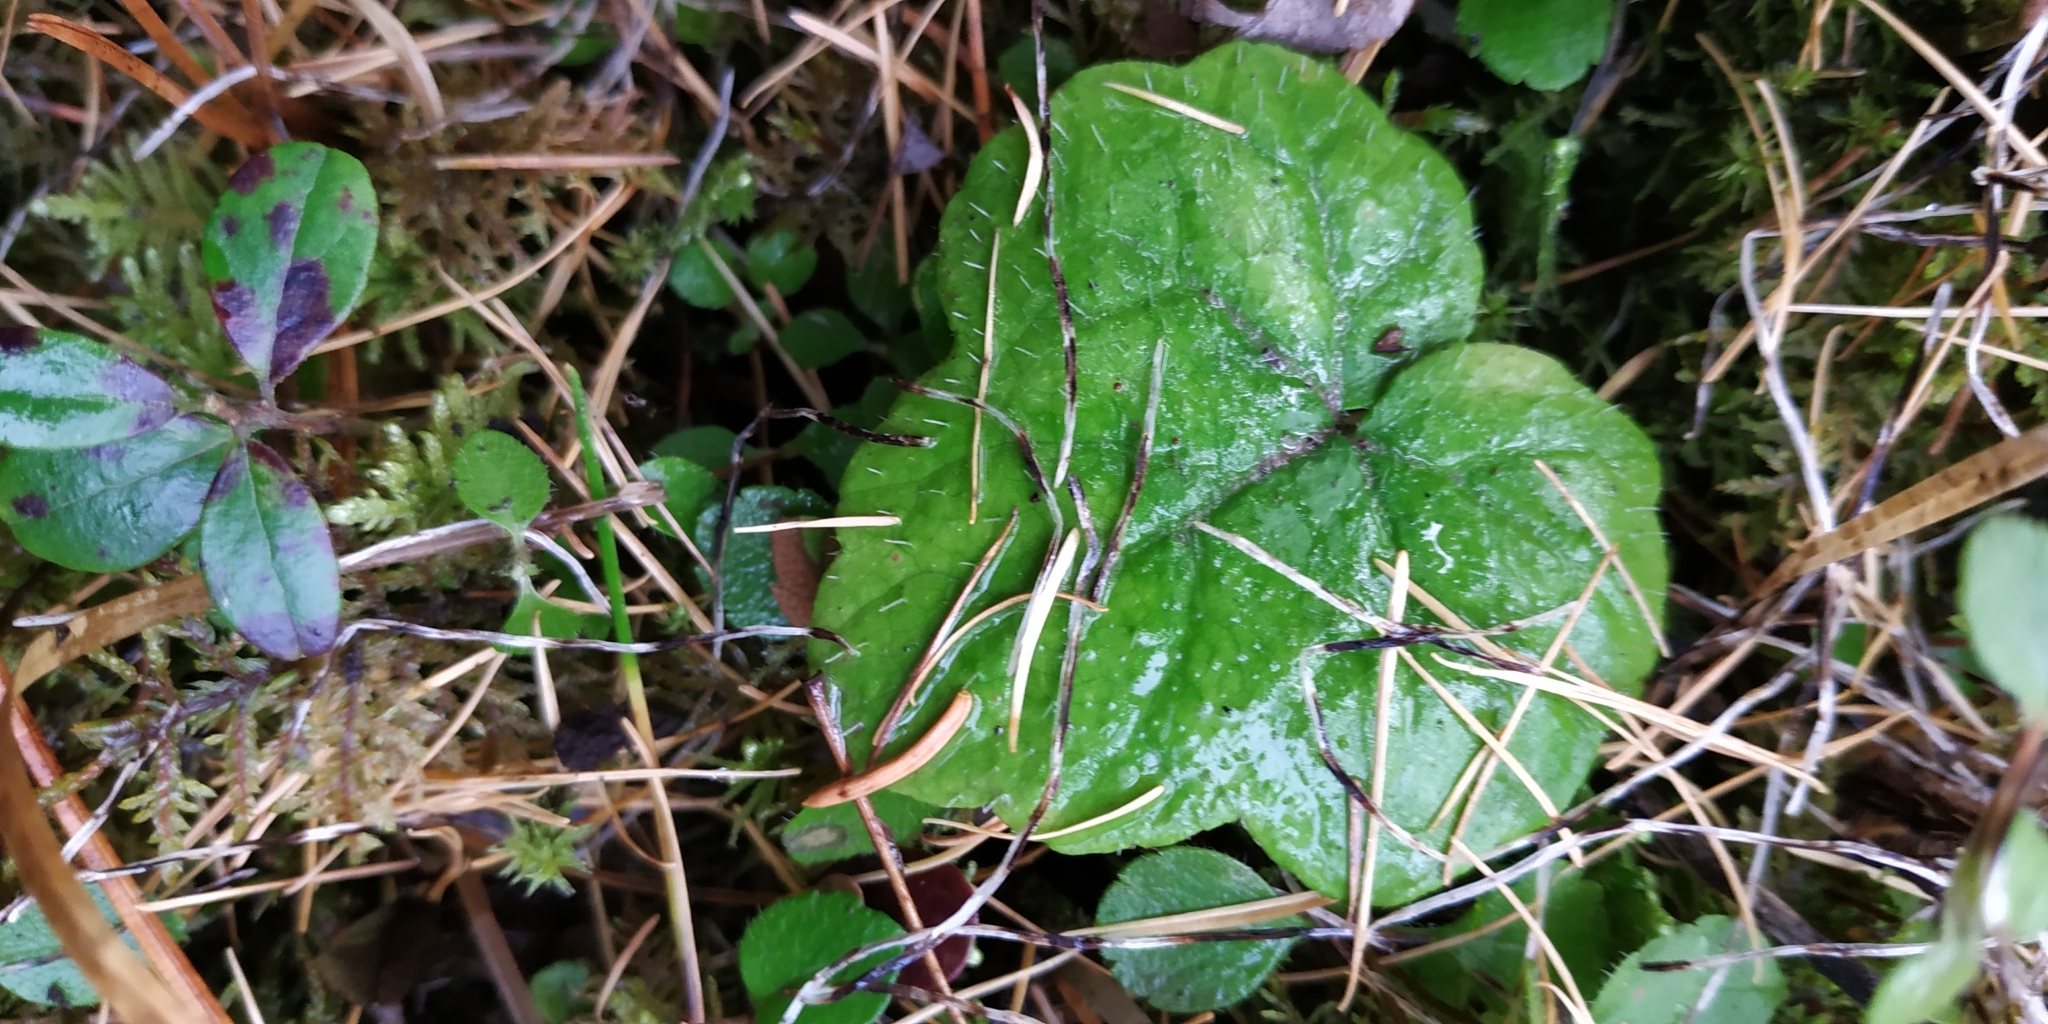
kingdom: Plantae
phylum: Tracheophyta
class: Magnoliopsida
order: Saxifragales
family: Saxifragaceae
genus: Mitella
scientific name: Mitella nuda
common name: Bare-stemmed bishop's-cap
